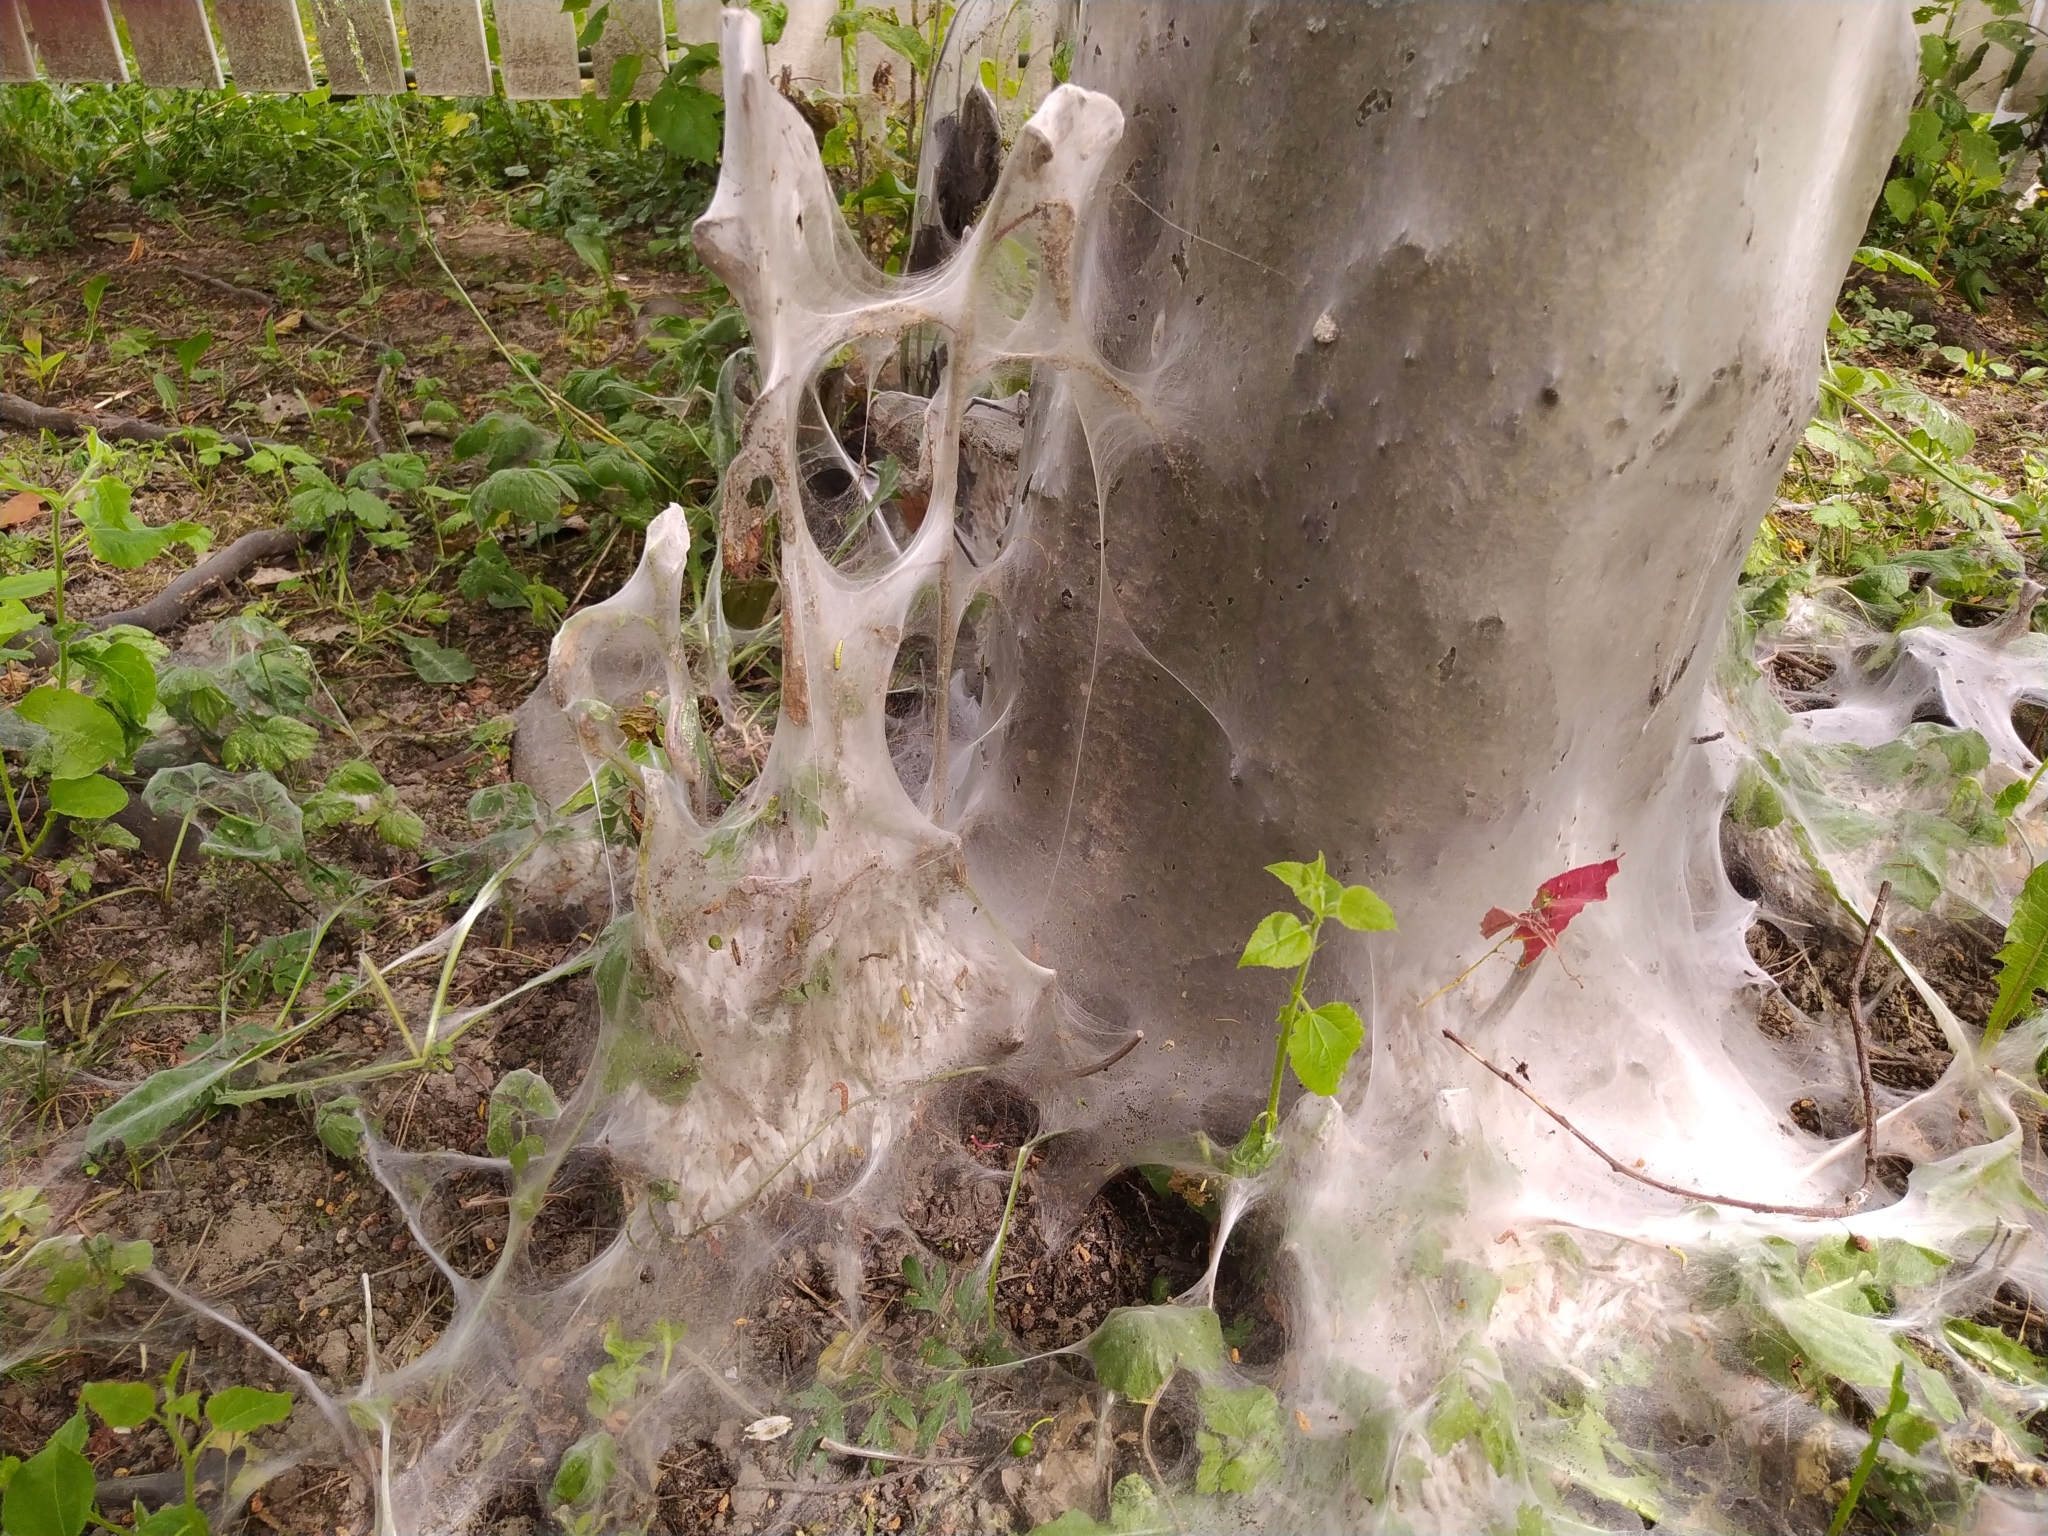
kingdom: Animalia
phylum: Arthropoda
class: Insecta
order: Lepidoptera
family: Yponomeutidae
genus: Yponomeuta
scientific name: Yponomeuta evonymella
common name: Bird-cherry ermine
